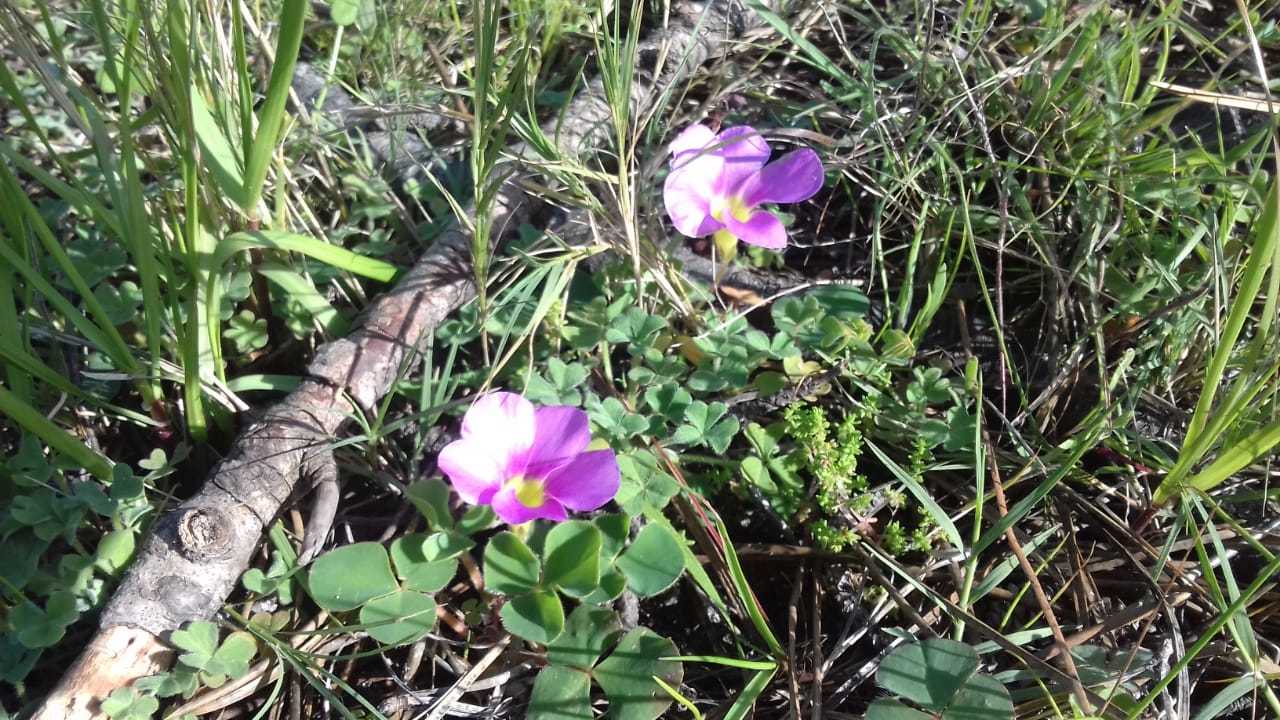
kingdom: Plantae
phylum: Tracheophyta
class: Magnoliopsida
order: Oxalidales
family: Oxalidaceae
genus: Oxalis
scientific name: Oxalis purpurea
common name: Purple woodsorrel
